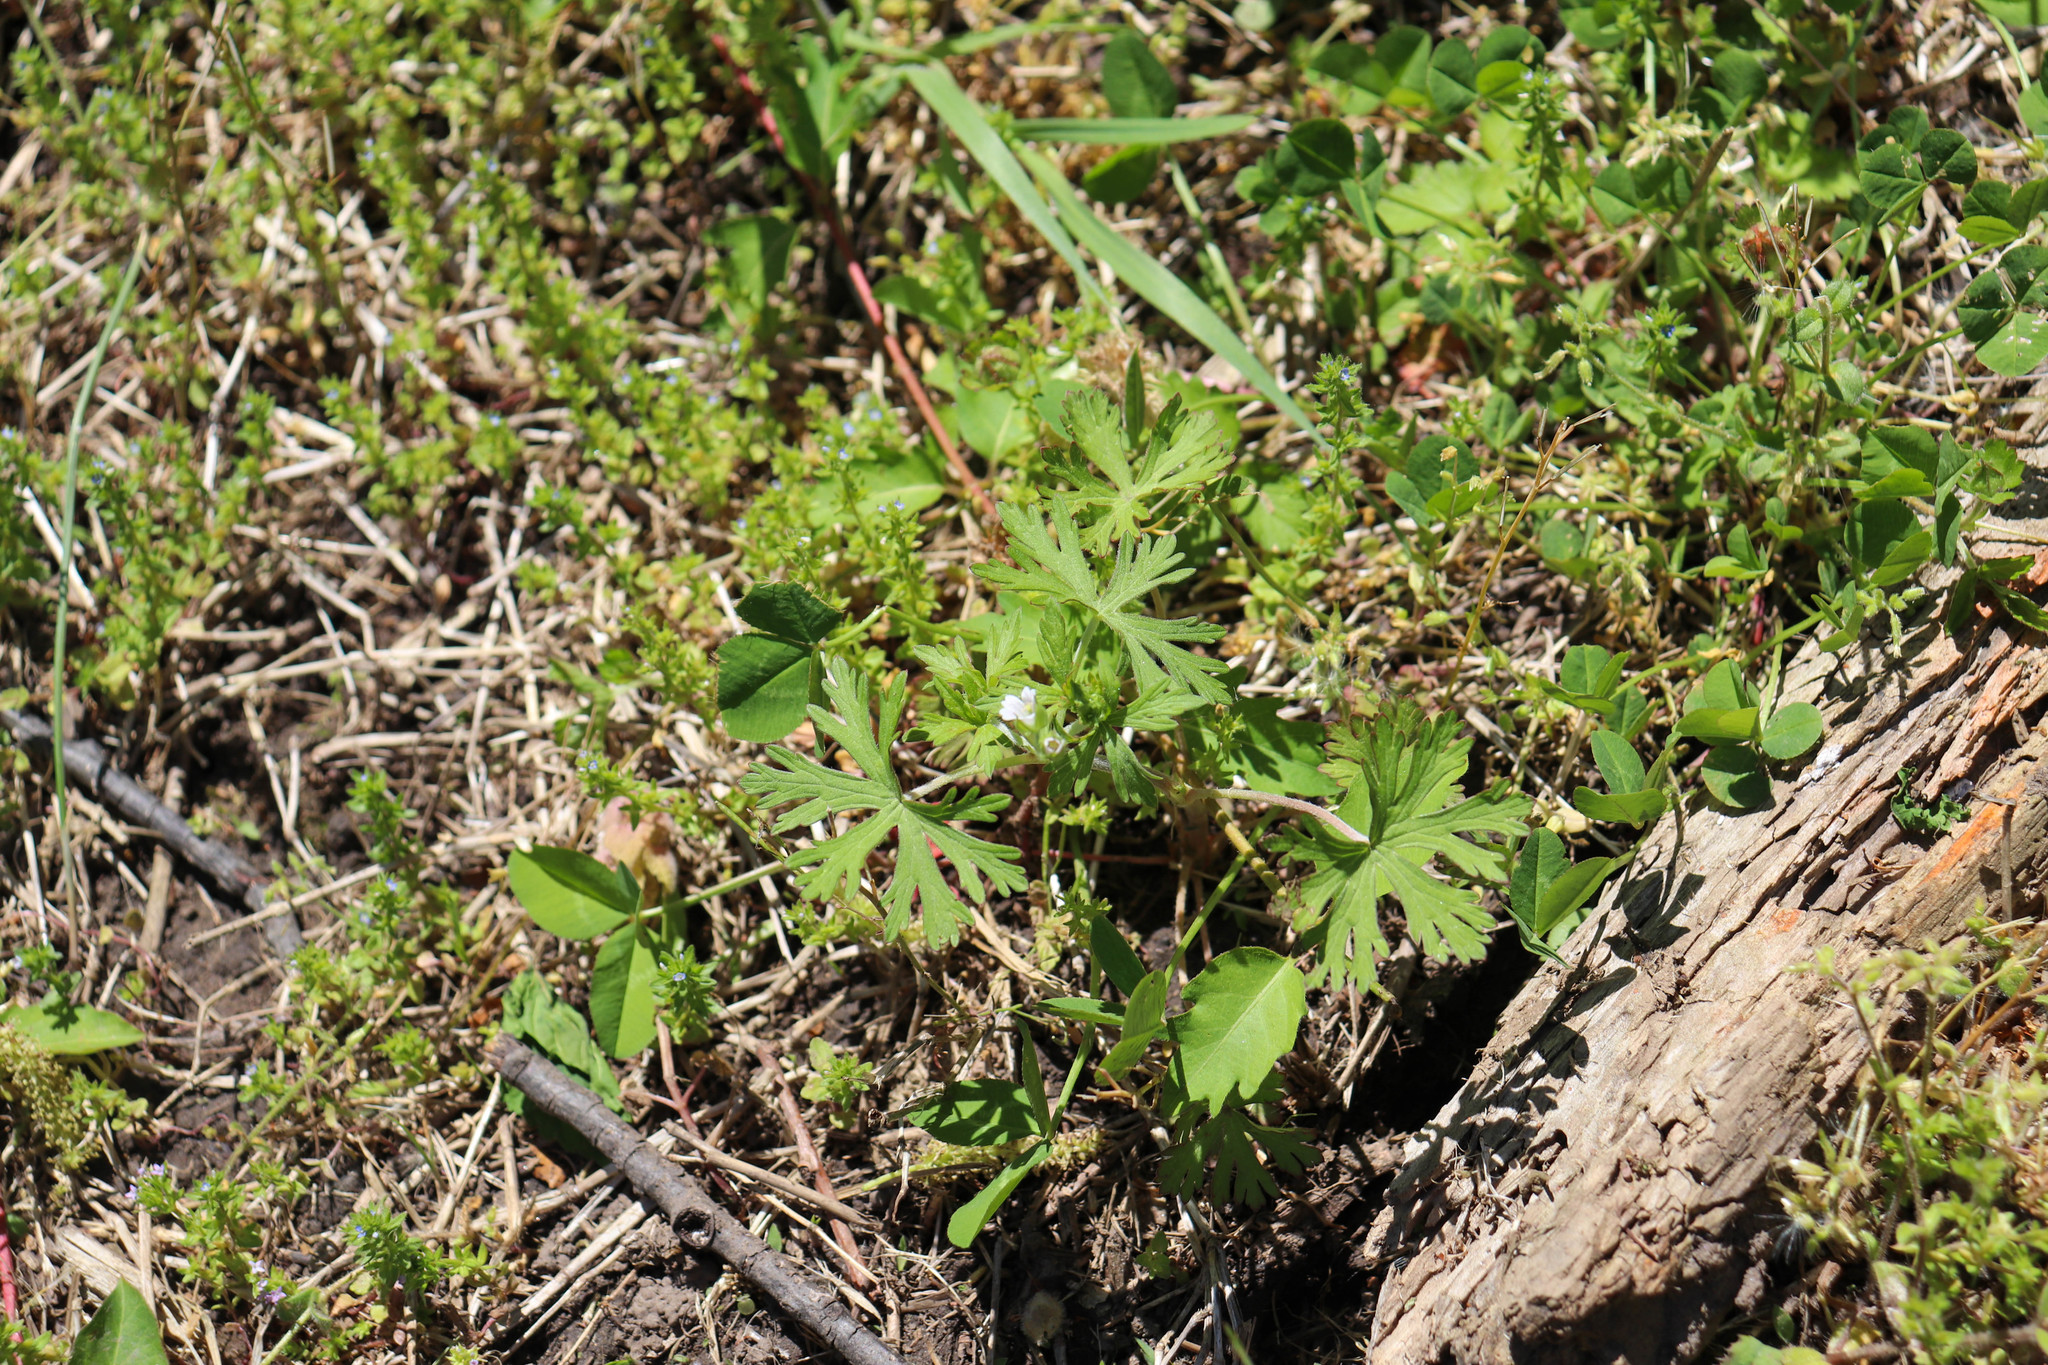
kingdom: Plantae
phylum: Tracheophyta
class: Magnoliopsida
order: Geraniales
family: Geraniaceae
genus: Geranium
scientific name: Geranium carolinianum
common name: Carolina crane's-bill
